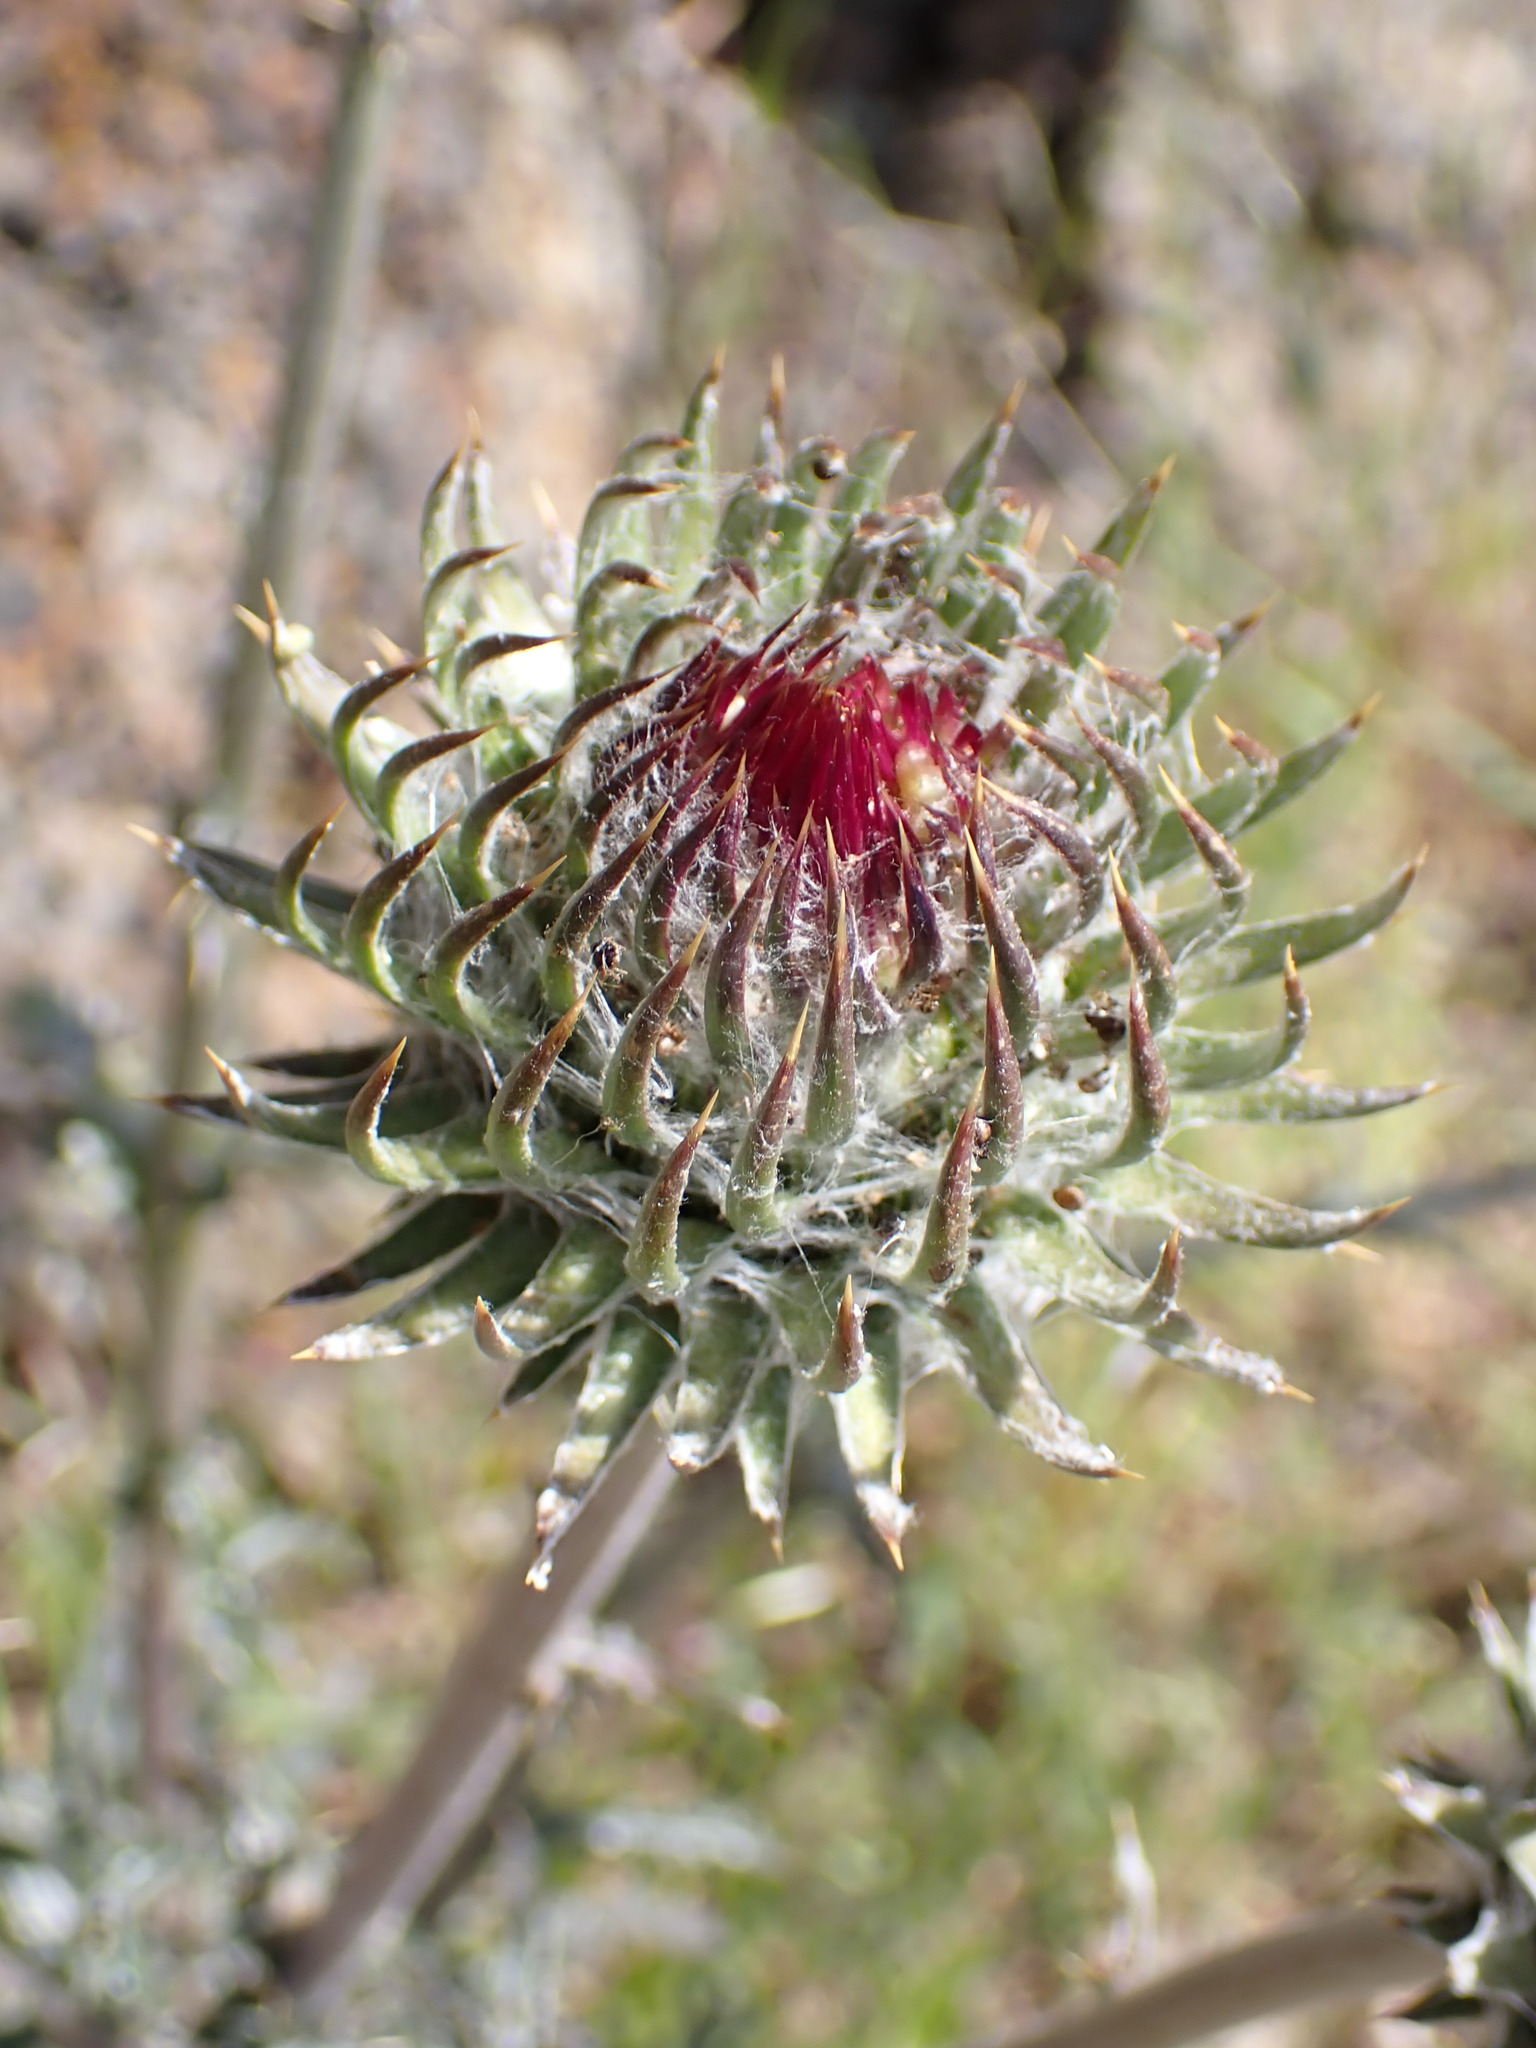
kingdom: Plantae
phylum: Tracheophyta
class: Magnoliopsida
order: Asterales
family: Asteraceae
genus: Cirsium
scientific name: Cirsium occidentale
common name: Western thistle
